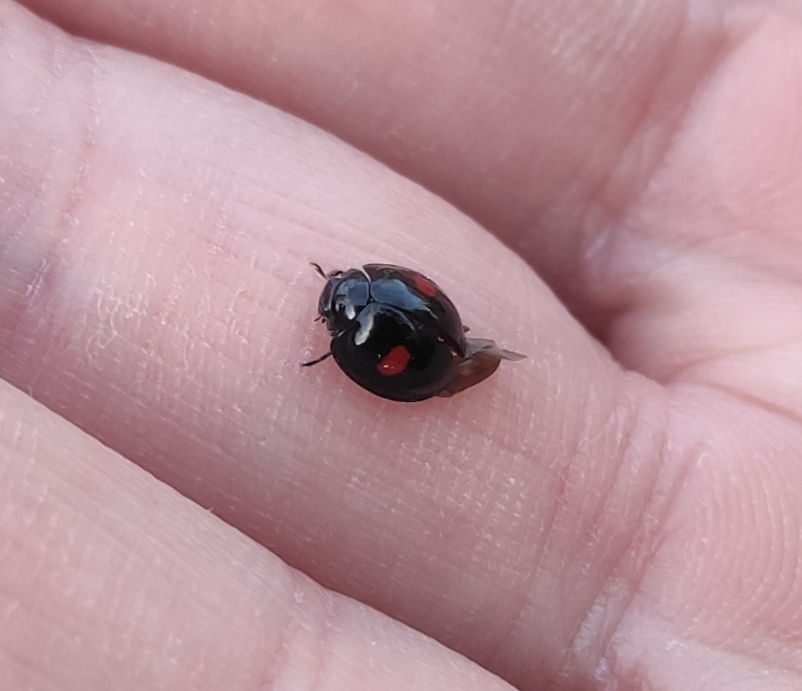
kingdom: Animalia
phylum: Arthropoda
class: Insecta
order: Coleoptera
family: Coccinellidae
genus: Chilocorus
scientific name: Chilocorus renipustulatus
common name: Kidney-spot ladybird
